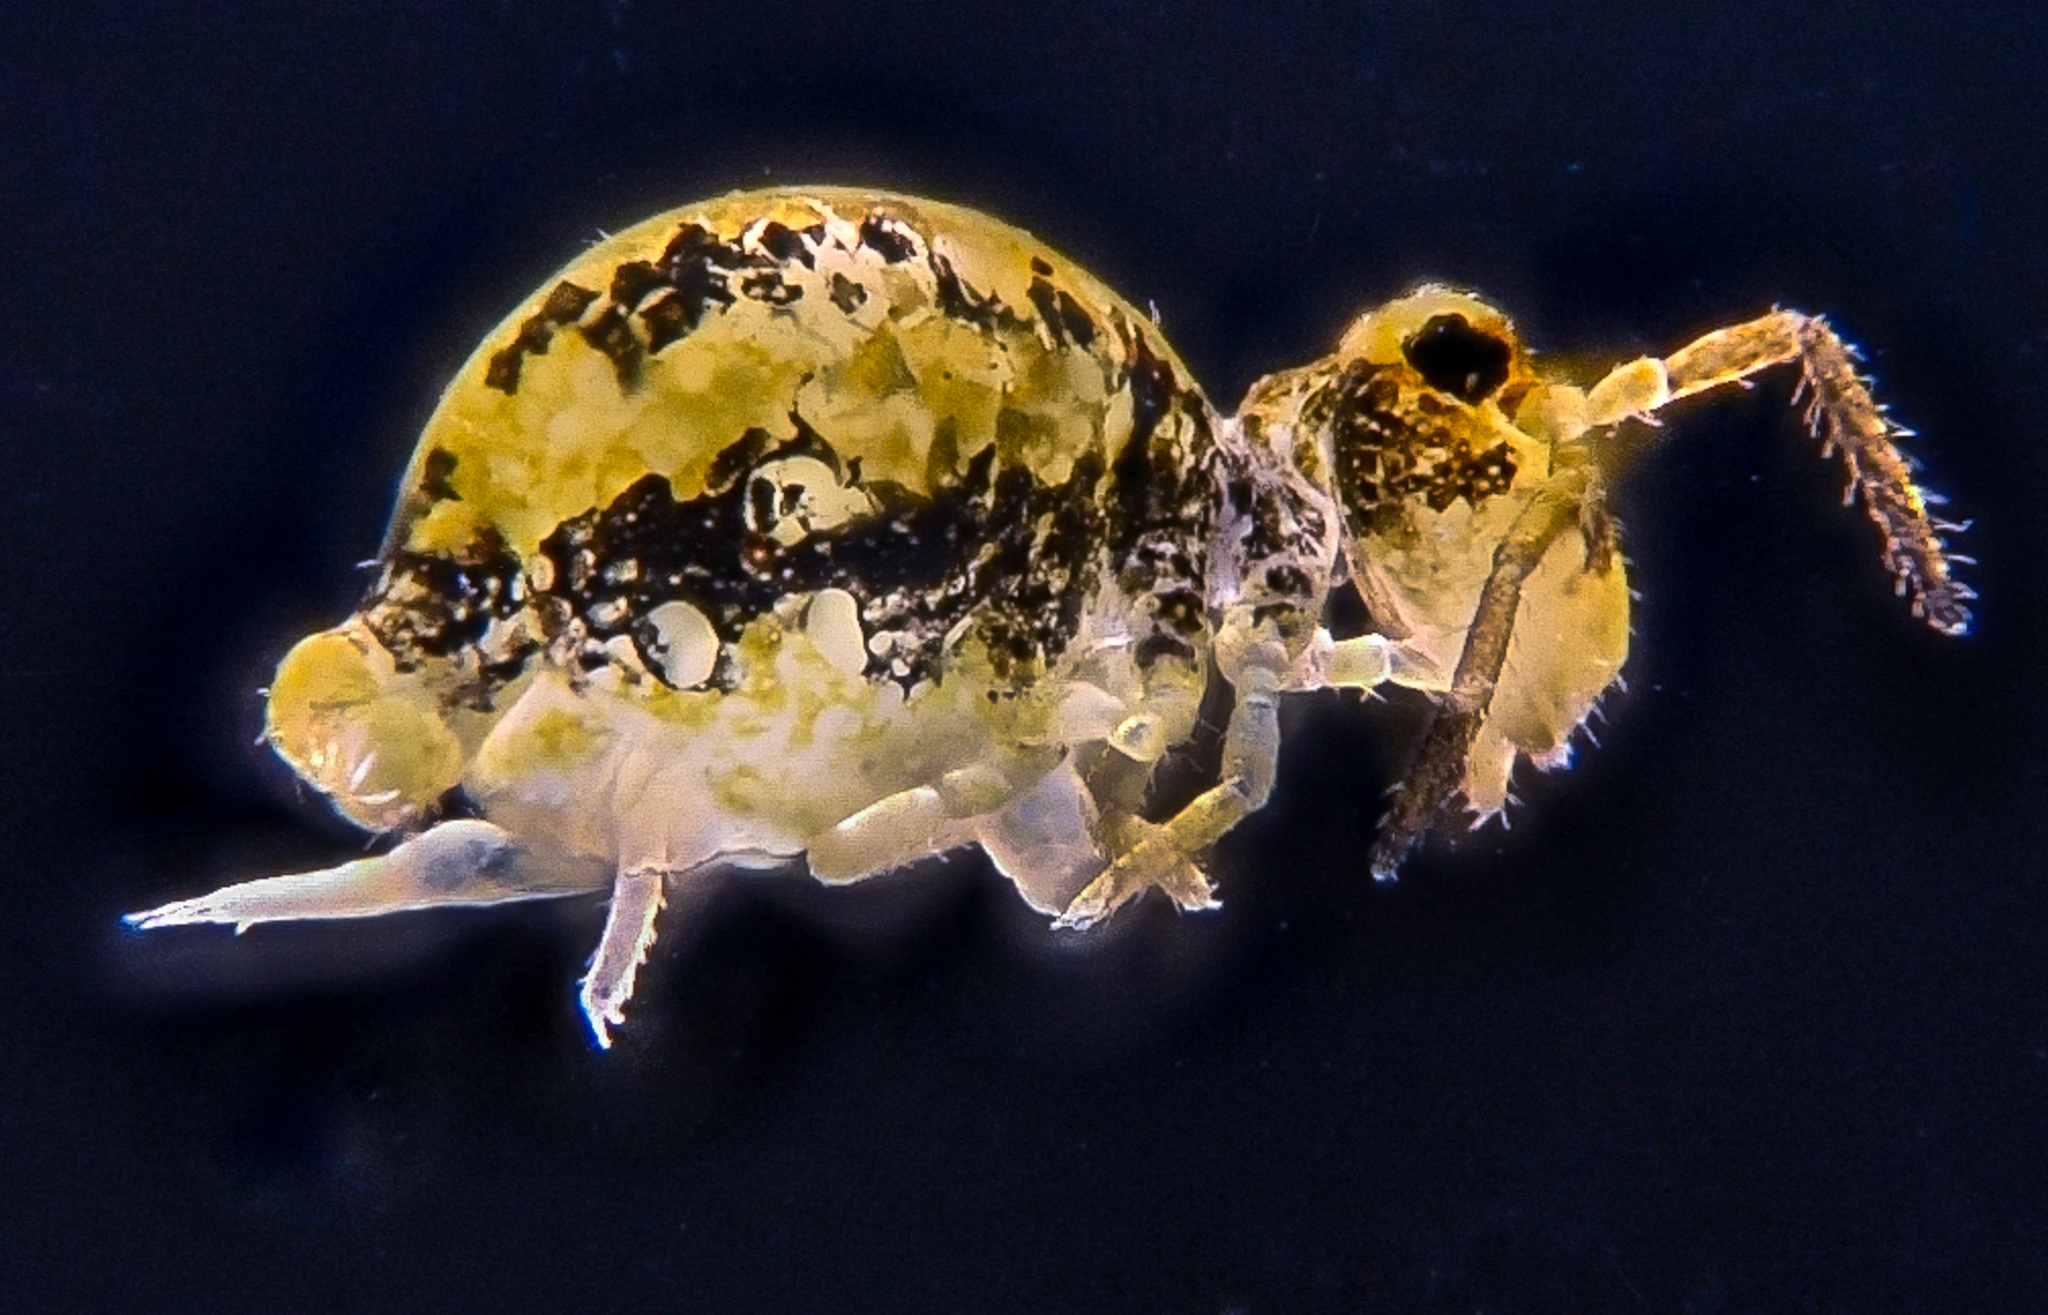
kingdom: Animalia
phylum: Arthropoda
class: Collembola
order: Symphypleona
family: Katiannidae
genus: Sminthurinus
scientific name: Sminthurinus elegans
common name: Globular springtail
